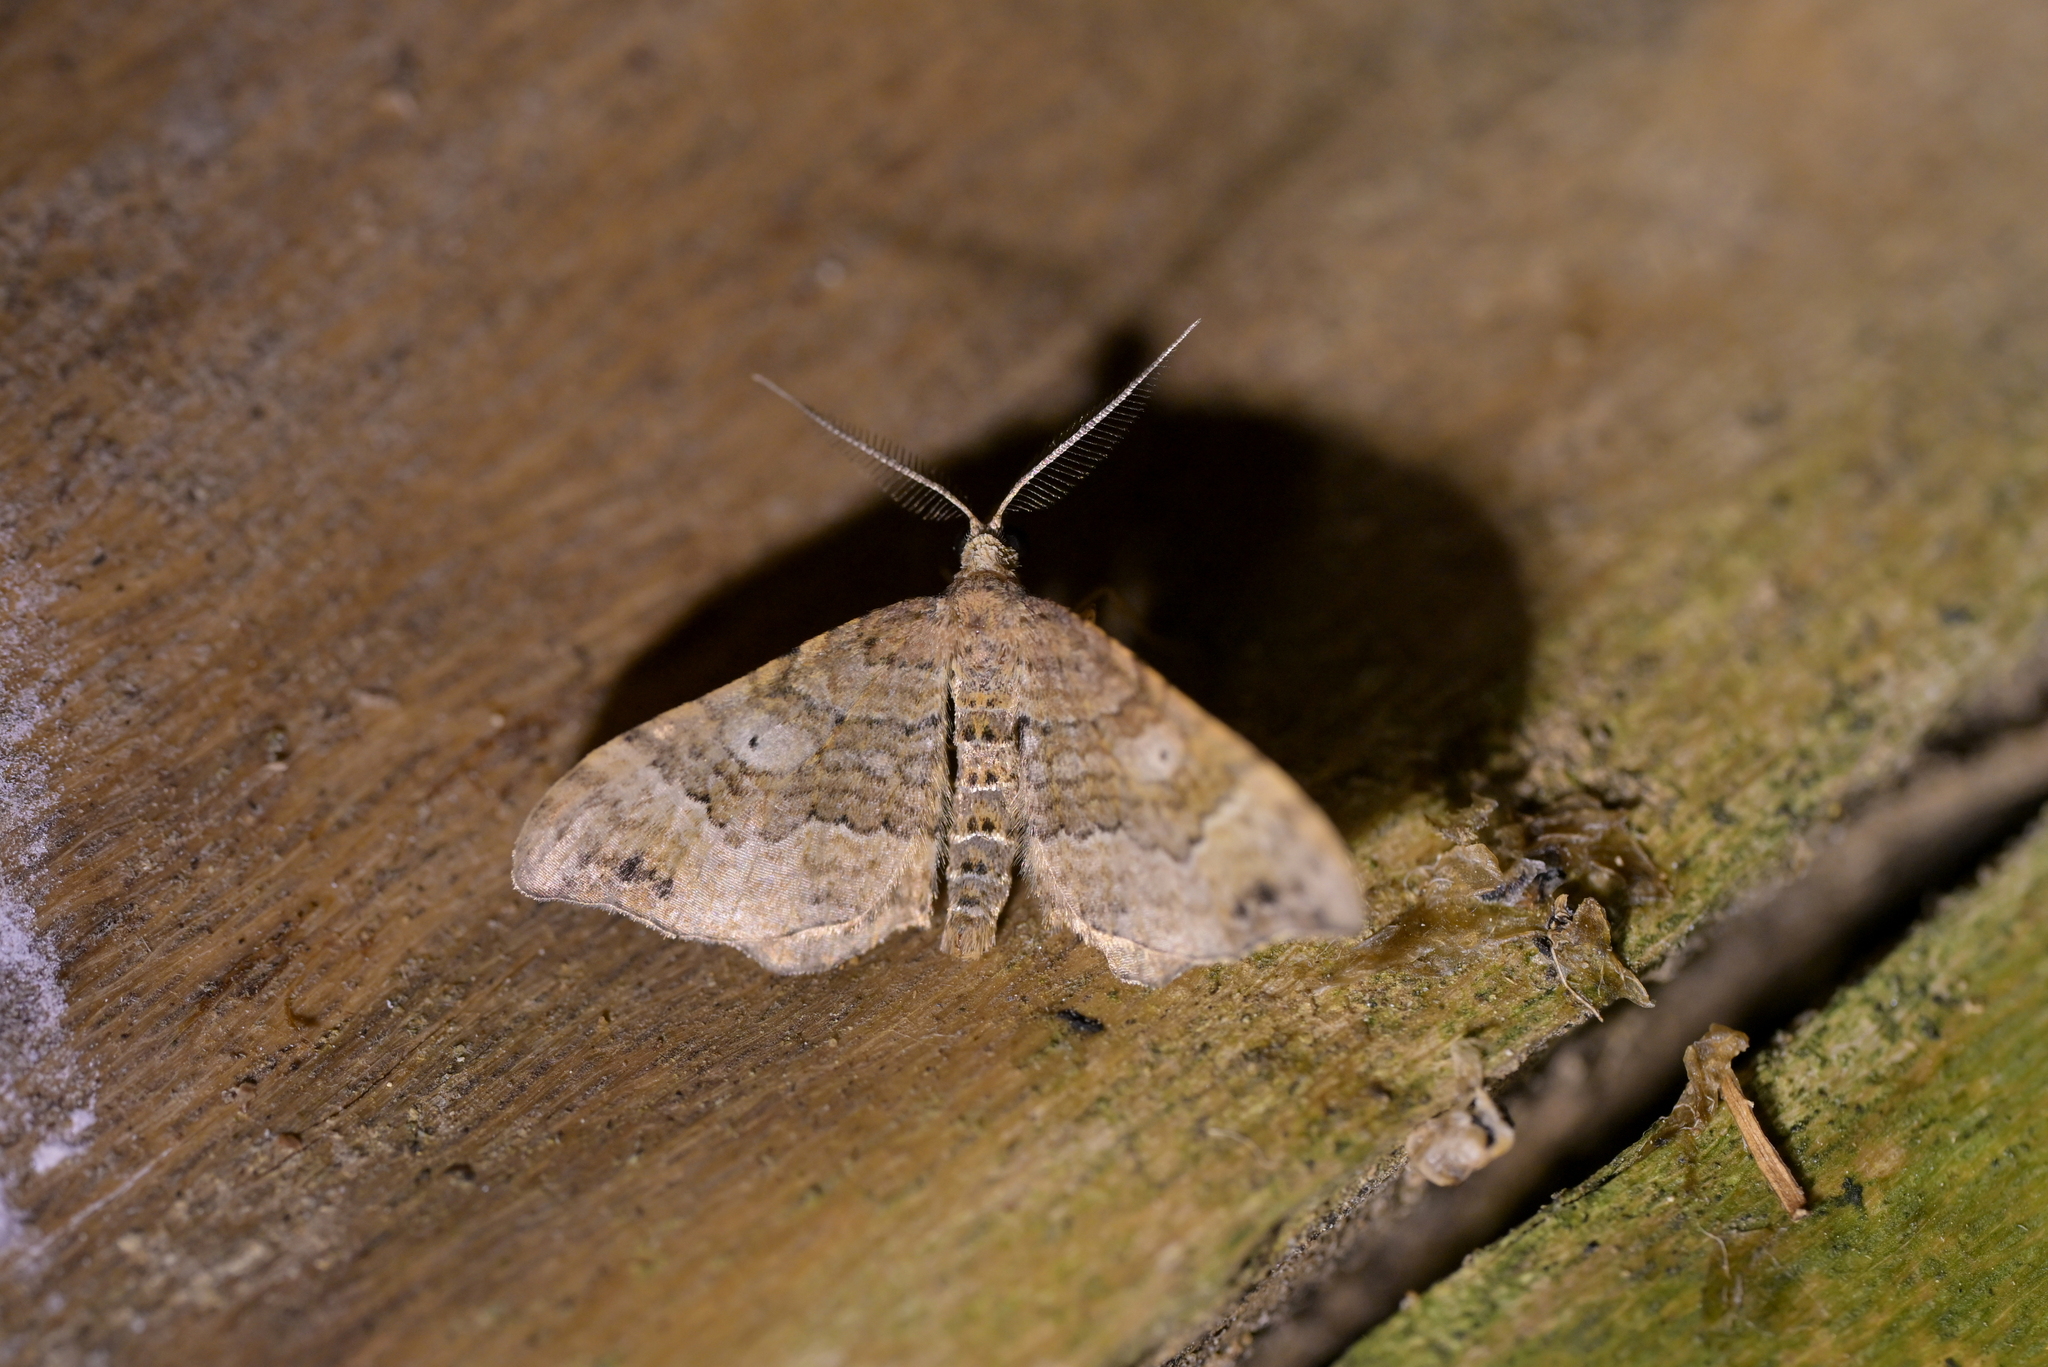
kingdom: Animalia
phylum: Arthropoda
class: Insecta
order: Lepidoptera
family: Geometridae
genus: Homodotis
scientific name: Homodotis megaspilata
